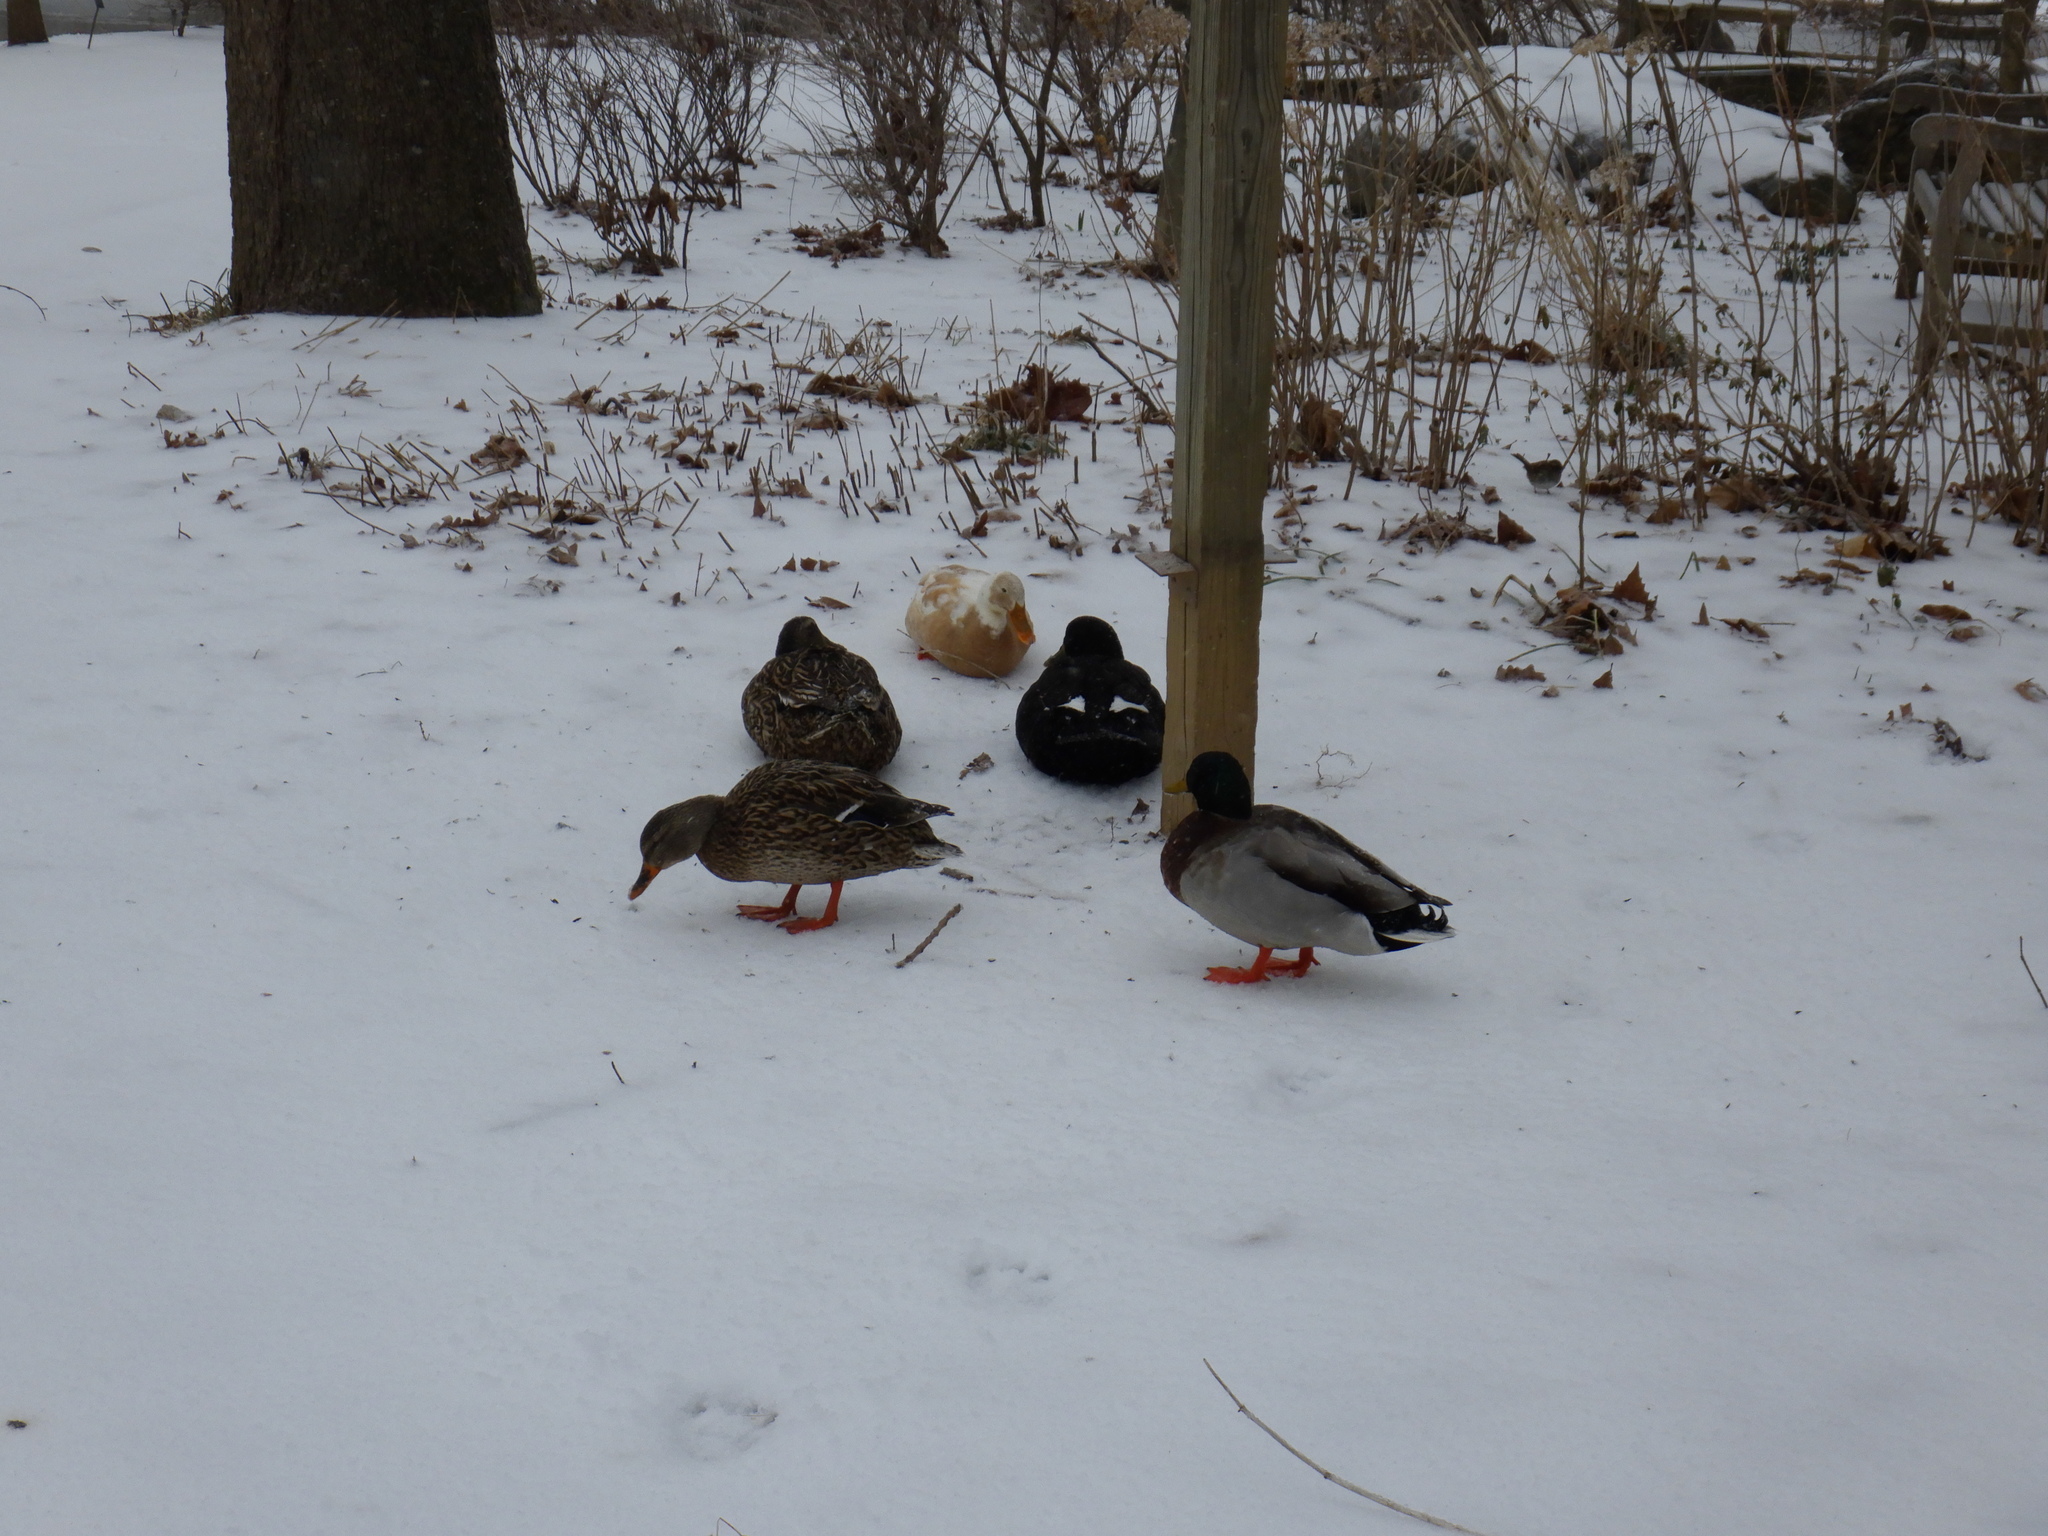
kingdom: Animalia
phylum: Chordata
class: Aves
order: Anseriformes
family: Anatidae
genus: Anas
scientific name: Anas platyrhynchos
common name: Mallard
